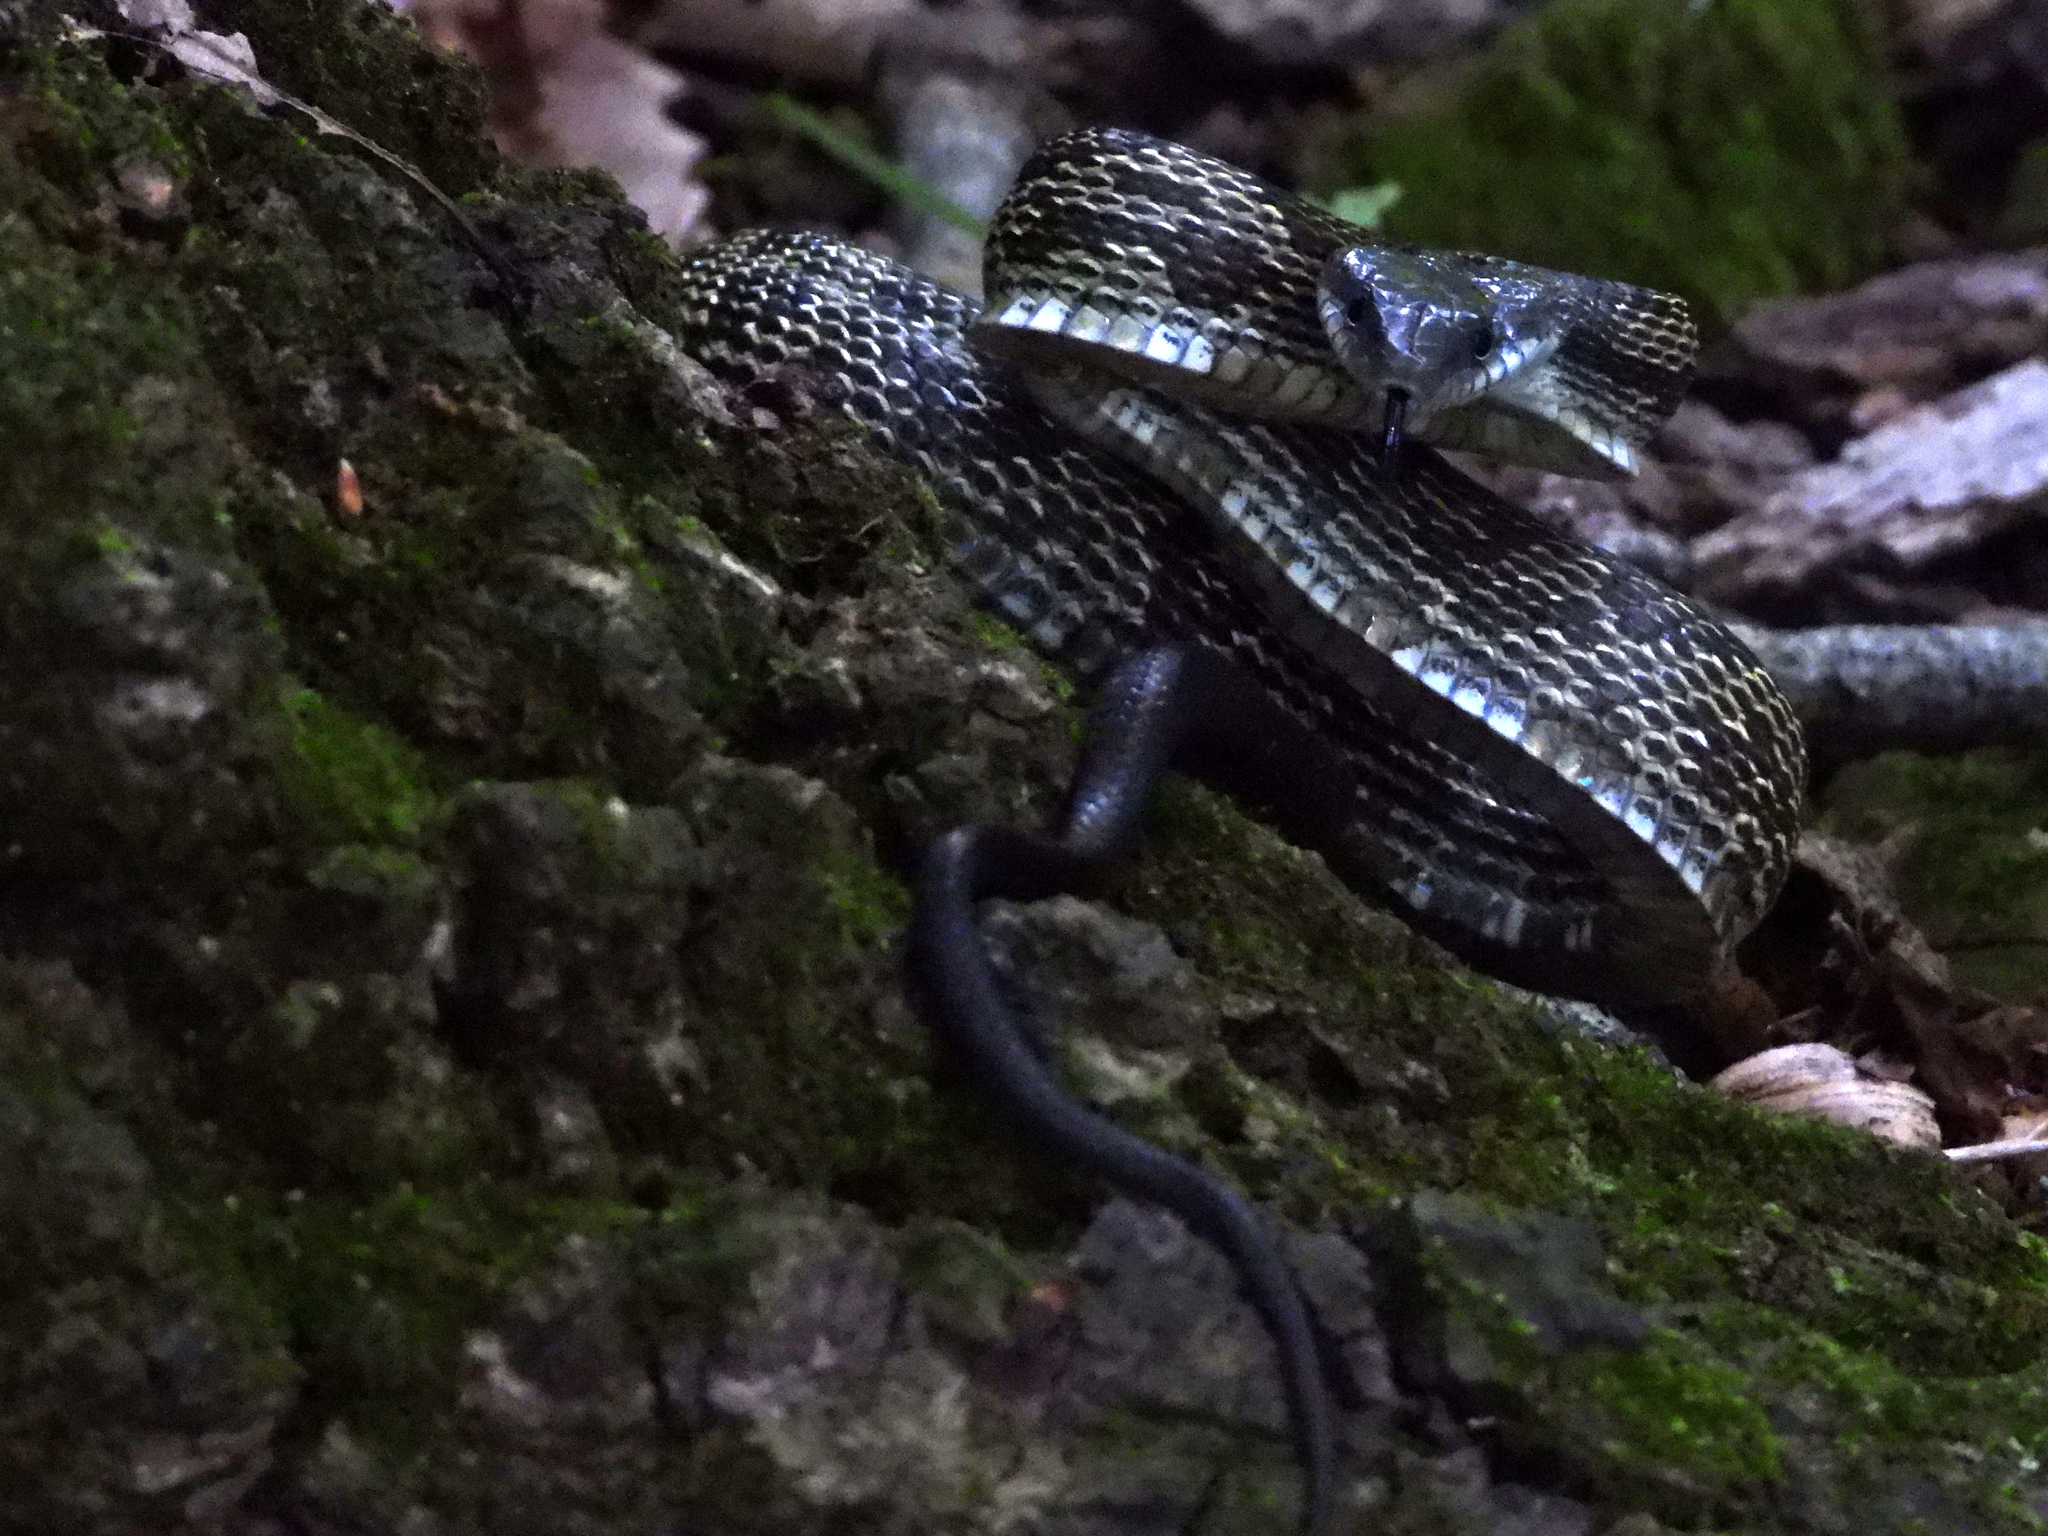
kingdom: Animalia
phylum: Chordata
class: Squamata
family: Colubridae
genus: Pantherophis
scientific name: Pantherophis spiloides
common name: Gray rat snake
